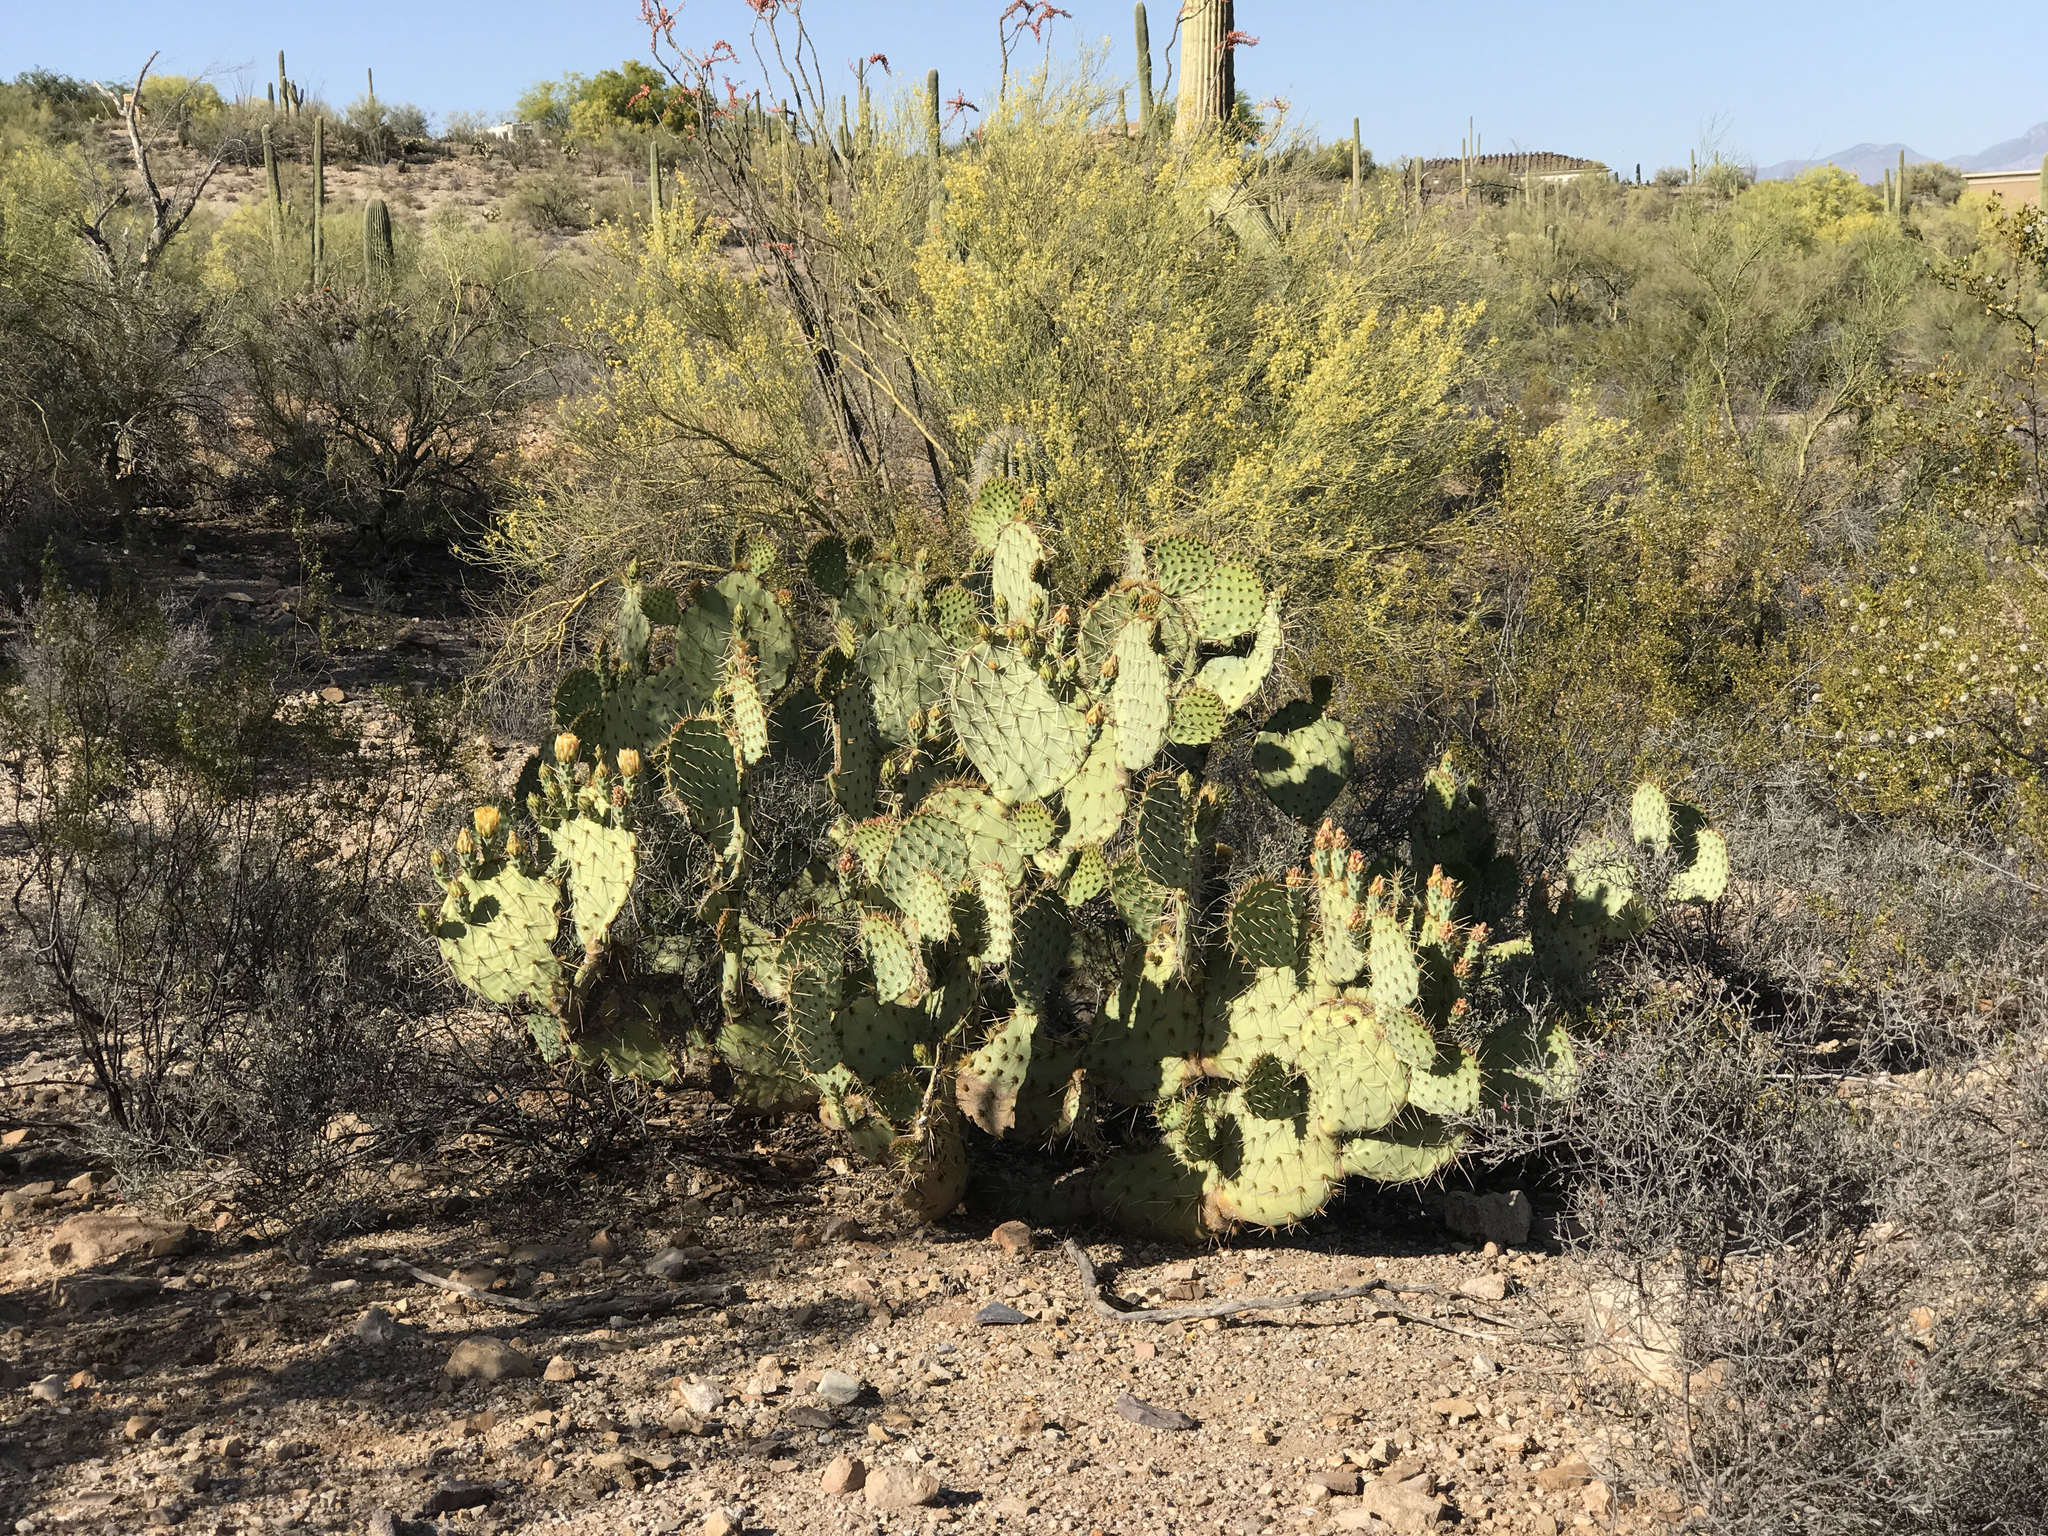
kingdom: Plantae
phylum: Tracheophyta
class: Magnoliopsida
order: Caryophyllales
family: Cactaceae
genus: Opuntia
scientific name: Opuntia engelmannii
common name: Cactus-apple
